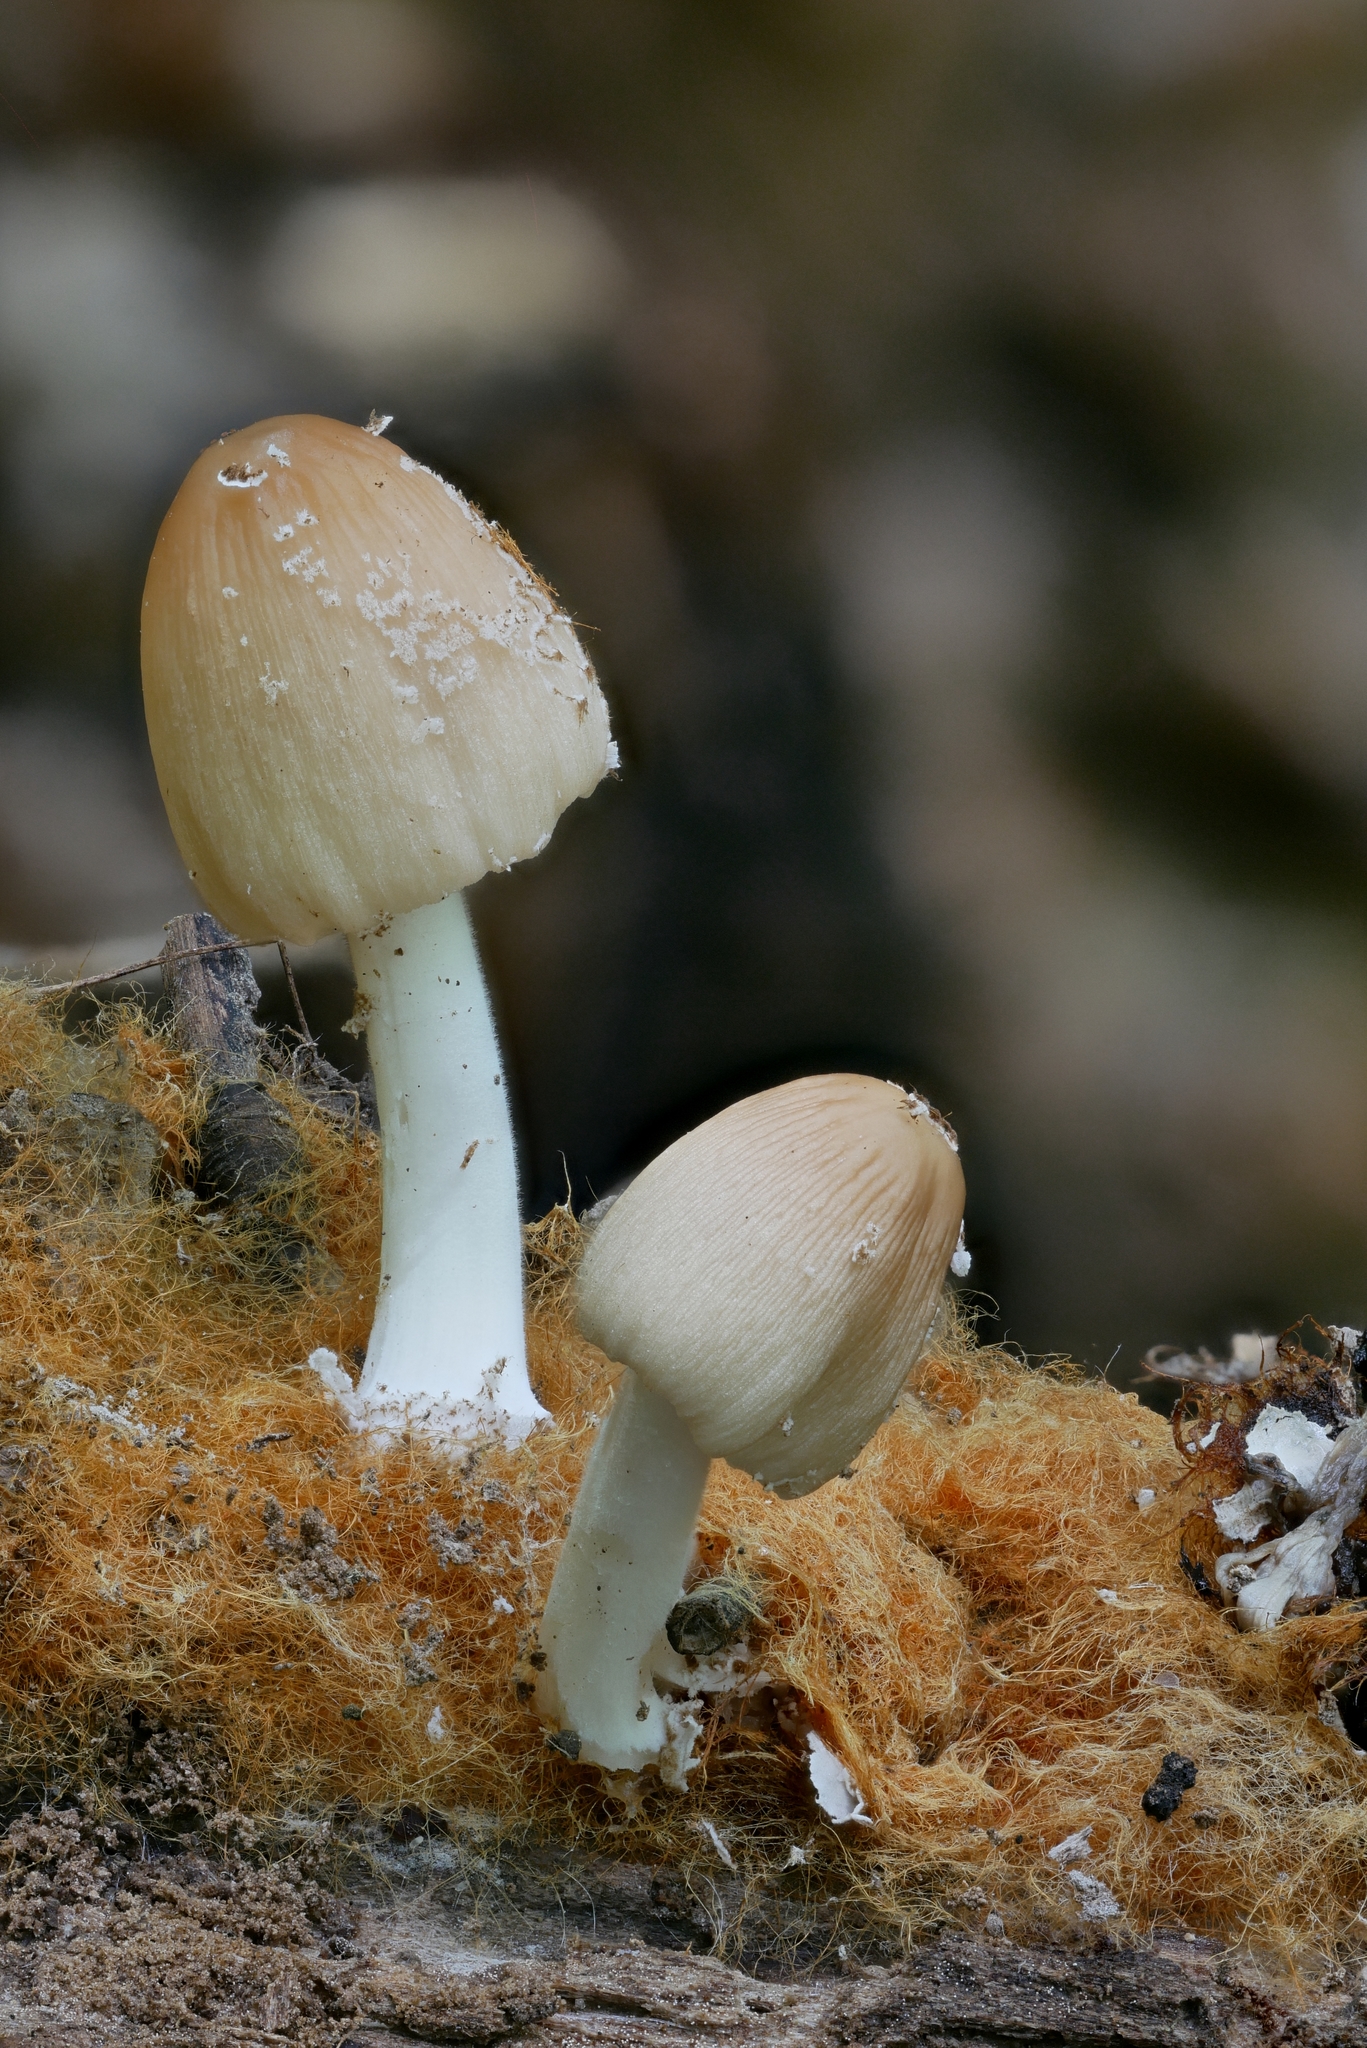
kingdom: Fungi
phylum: Basidiomycota
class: Agaricomycetes
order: Agaricales
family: Psathyrellaceae
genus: Coprinellus
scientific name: Coprinellus radians
